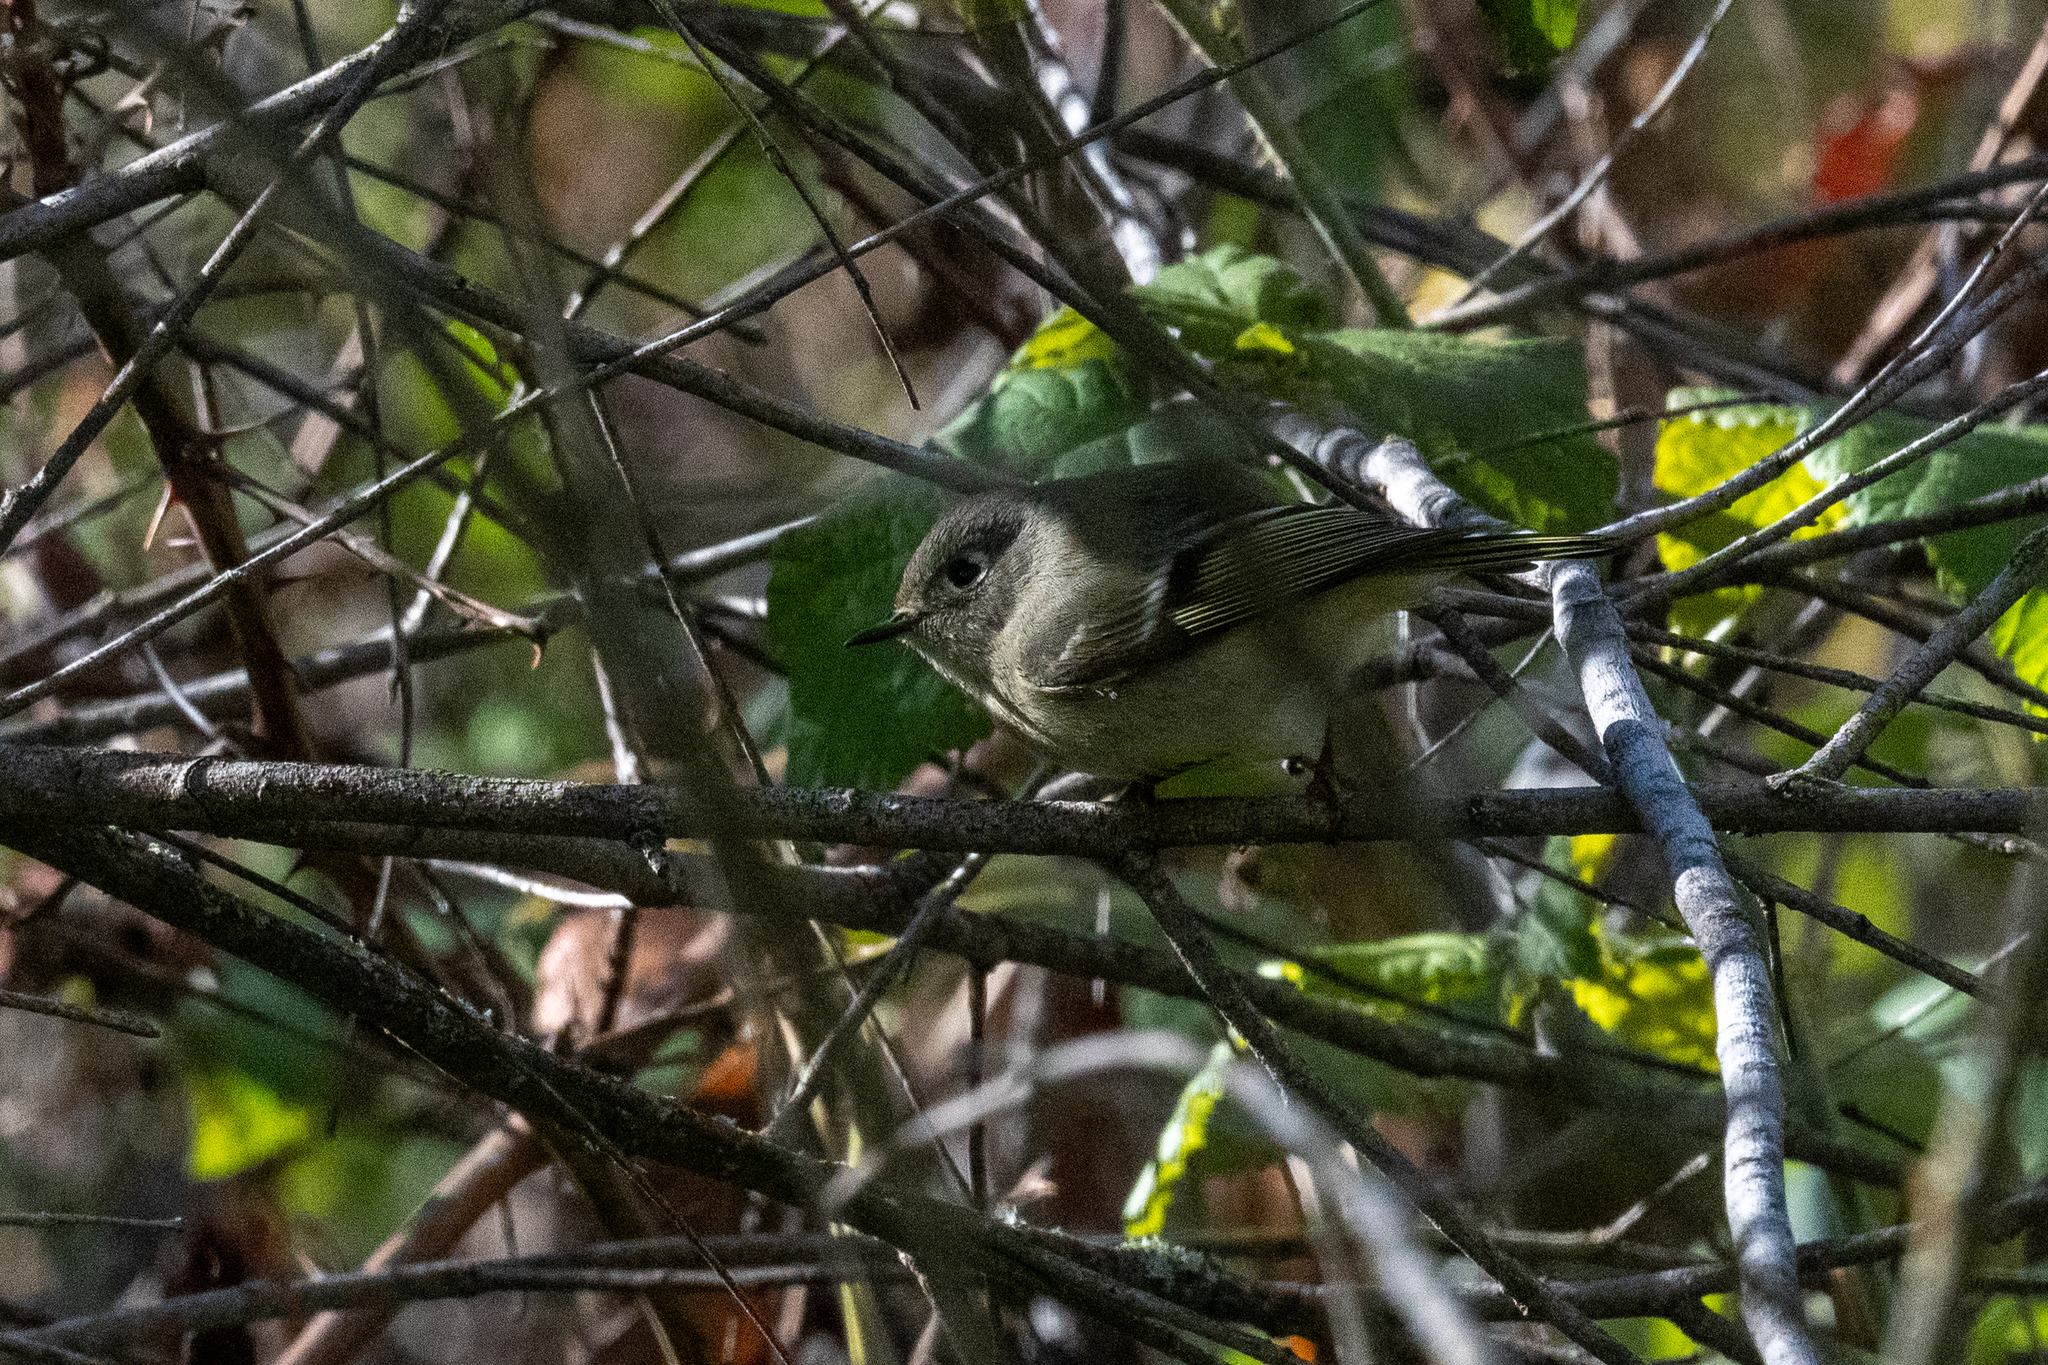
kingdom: Animalia
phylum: Chordata
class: Aves
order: Passeriformes
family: Regulidae
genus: Regulus
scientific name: Regulus calendula
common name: Ruby-crowned kinglet
